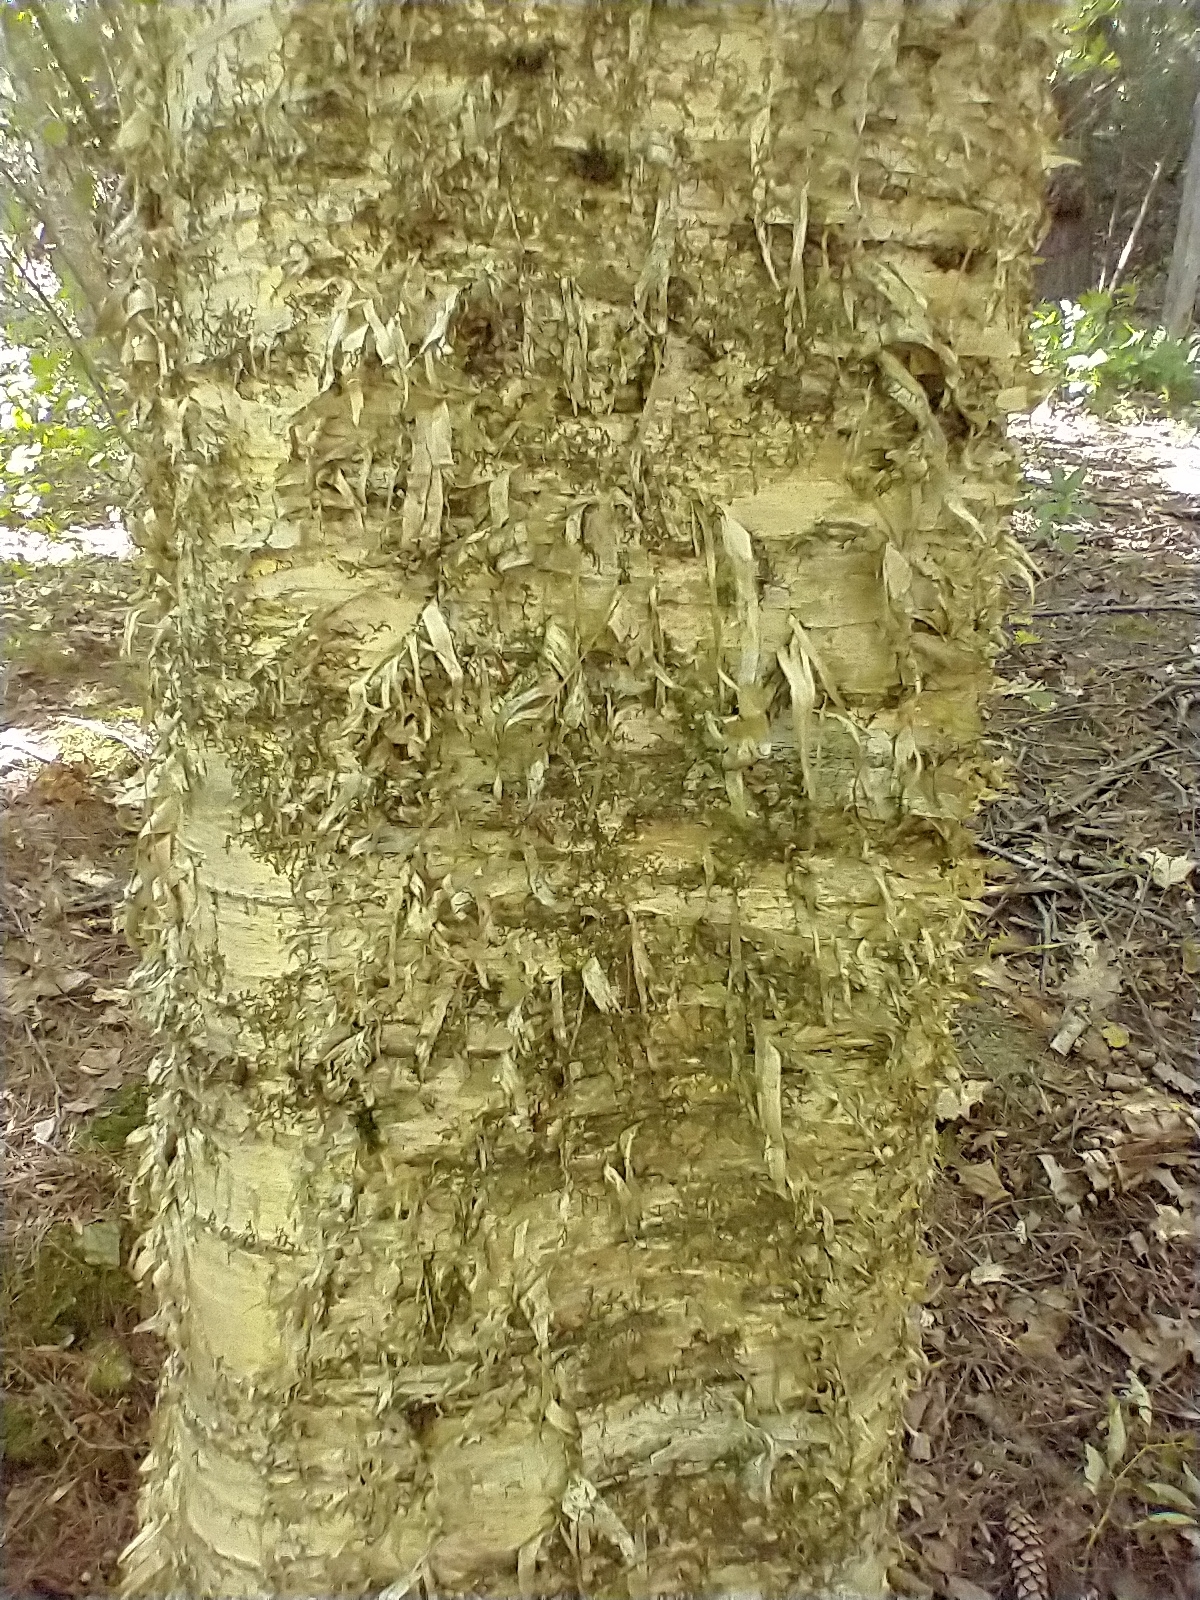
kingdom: Plantae
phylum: Tracheophyta
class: Magnoliopsida
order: Fagales
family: Betulaceae
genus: Betula
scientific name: Betula alleghaniensis
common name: Yellow birch
